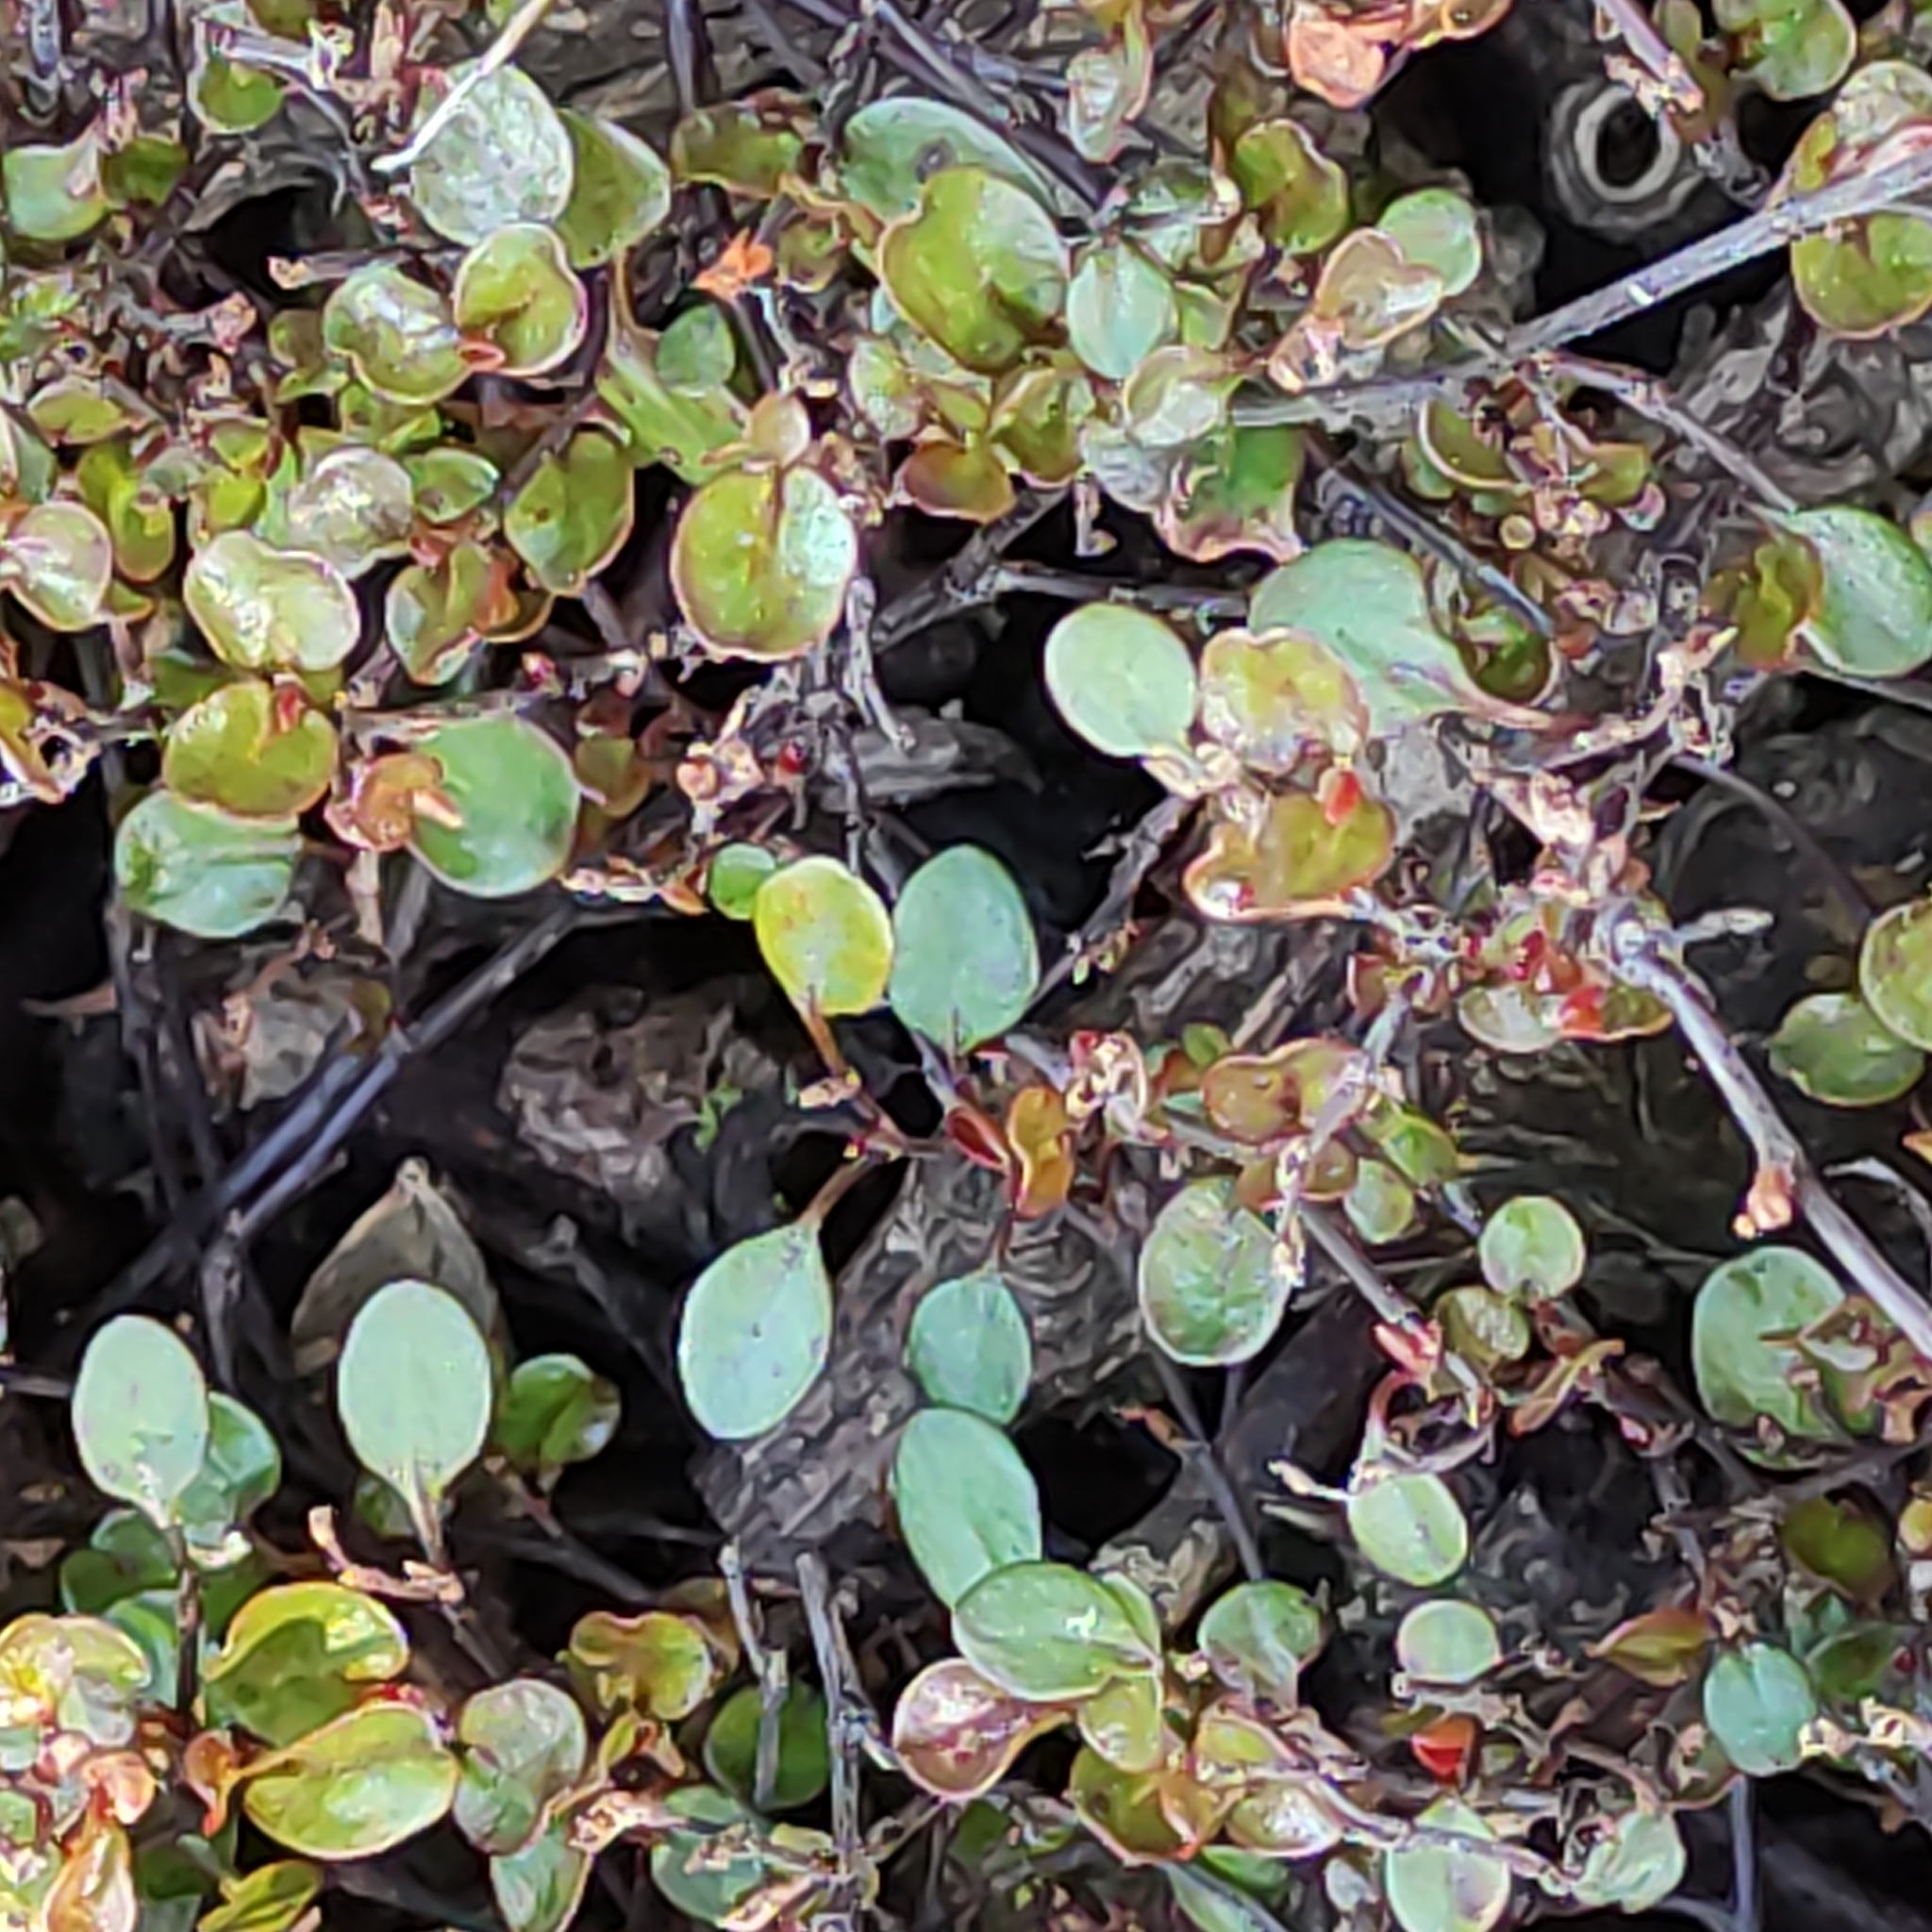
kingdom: Plantae
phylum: Tracheophyta
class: Magnoliopsida
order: Caryophyllales
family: Polygonaceae
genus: Muehlenbeckia
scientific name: Muehlenbeckia axillaris
